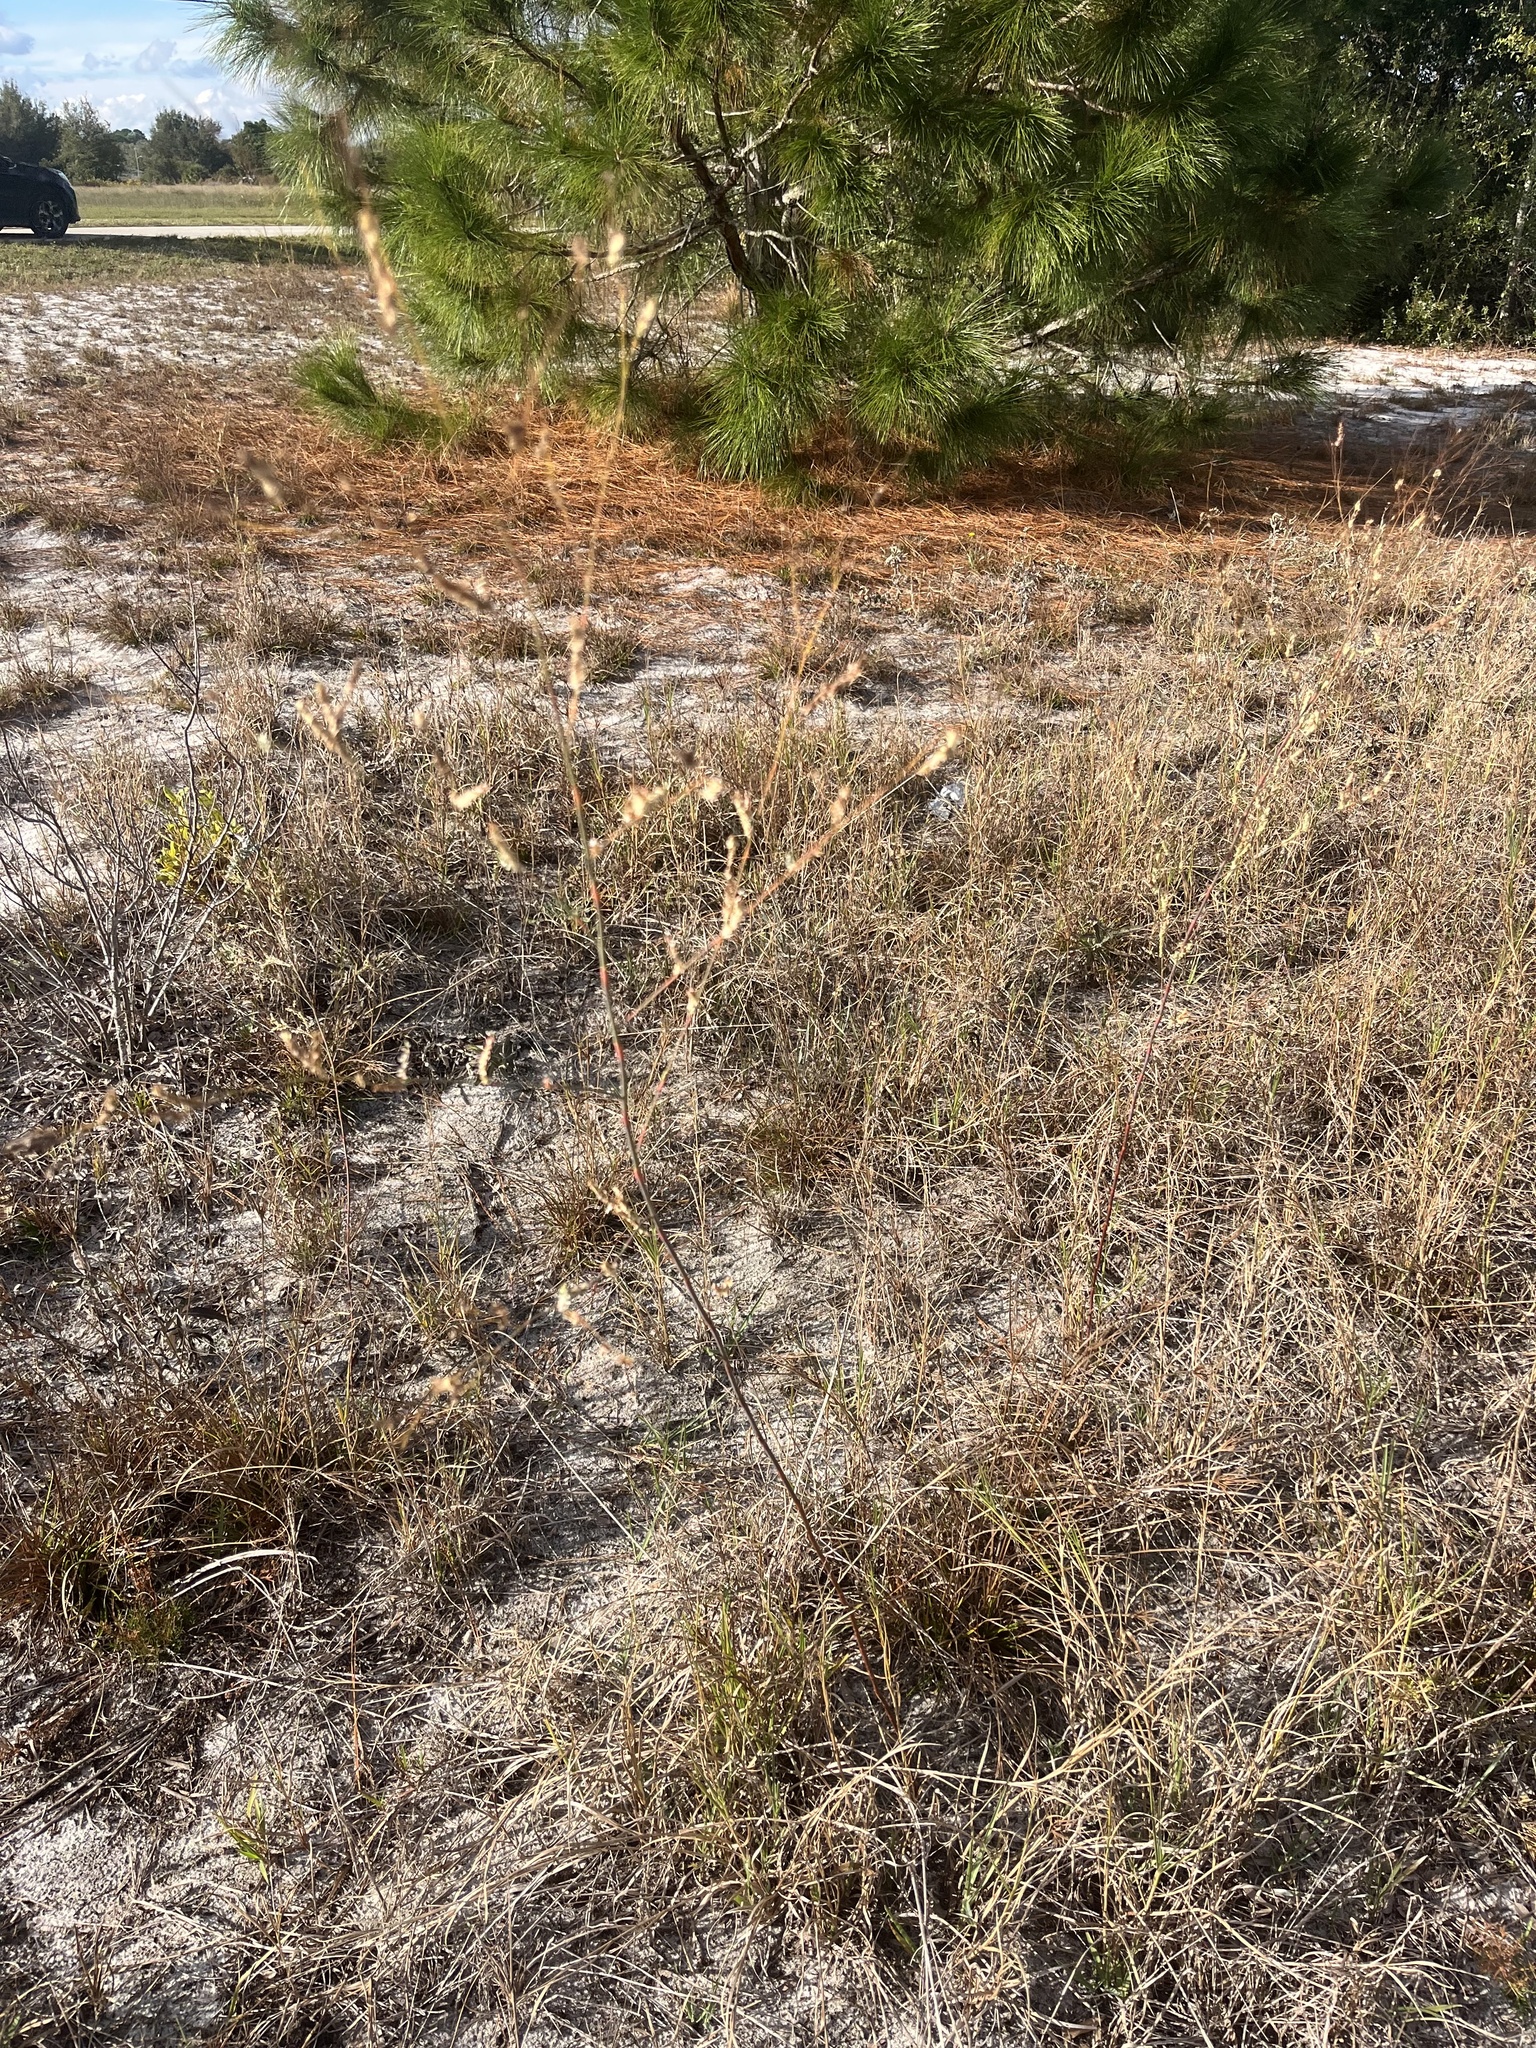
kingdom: Plantae
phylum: Tracheophyta
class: Magnoliopsida
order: Caryophyllales
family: Polygonaceae
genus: Polygonella
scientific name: Polygonella gracilis
